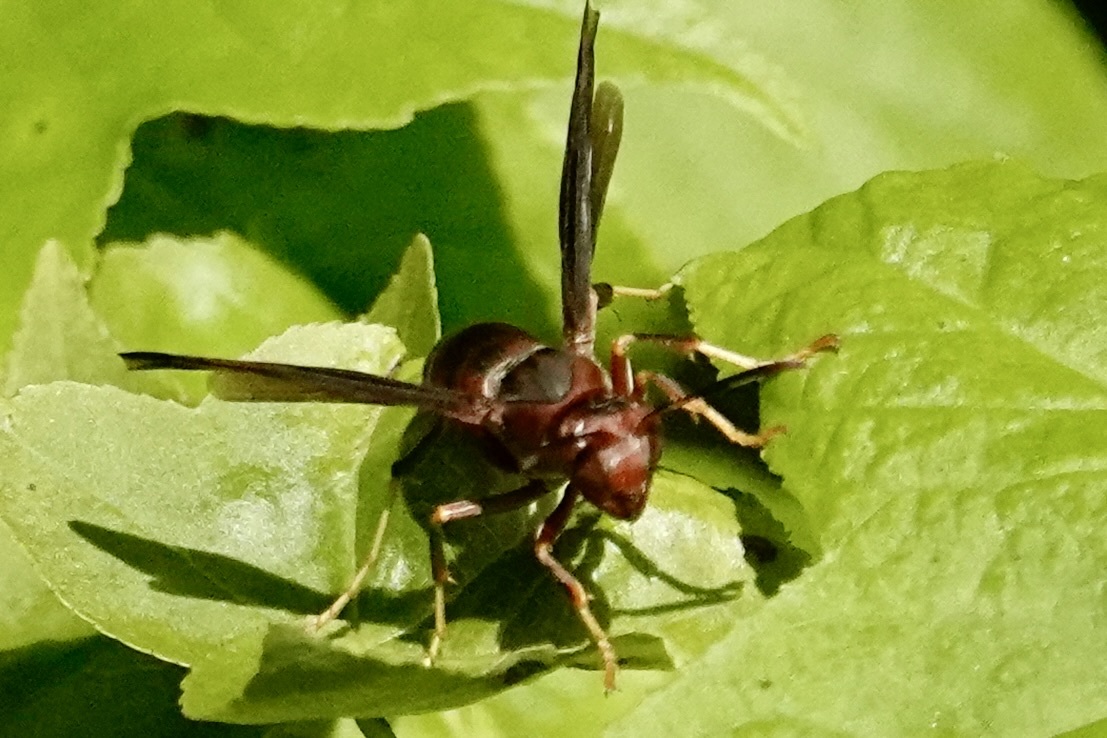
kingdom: Animalia
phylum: Arthropoda
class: Insecta
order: Hymenoptera
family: Eumenidae
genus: Polistes
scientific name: Polistes metricus
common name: Metric paper wasp
